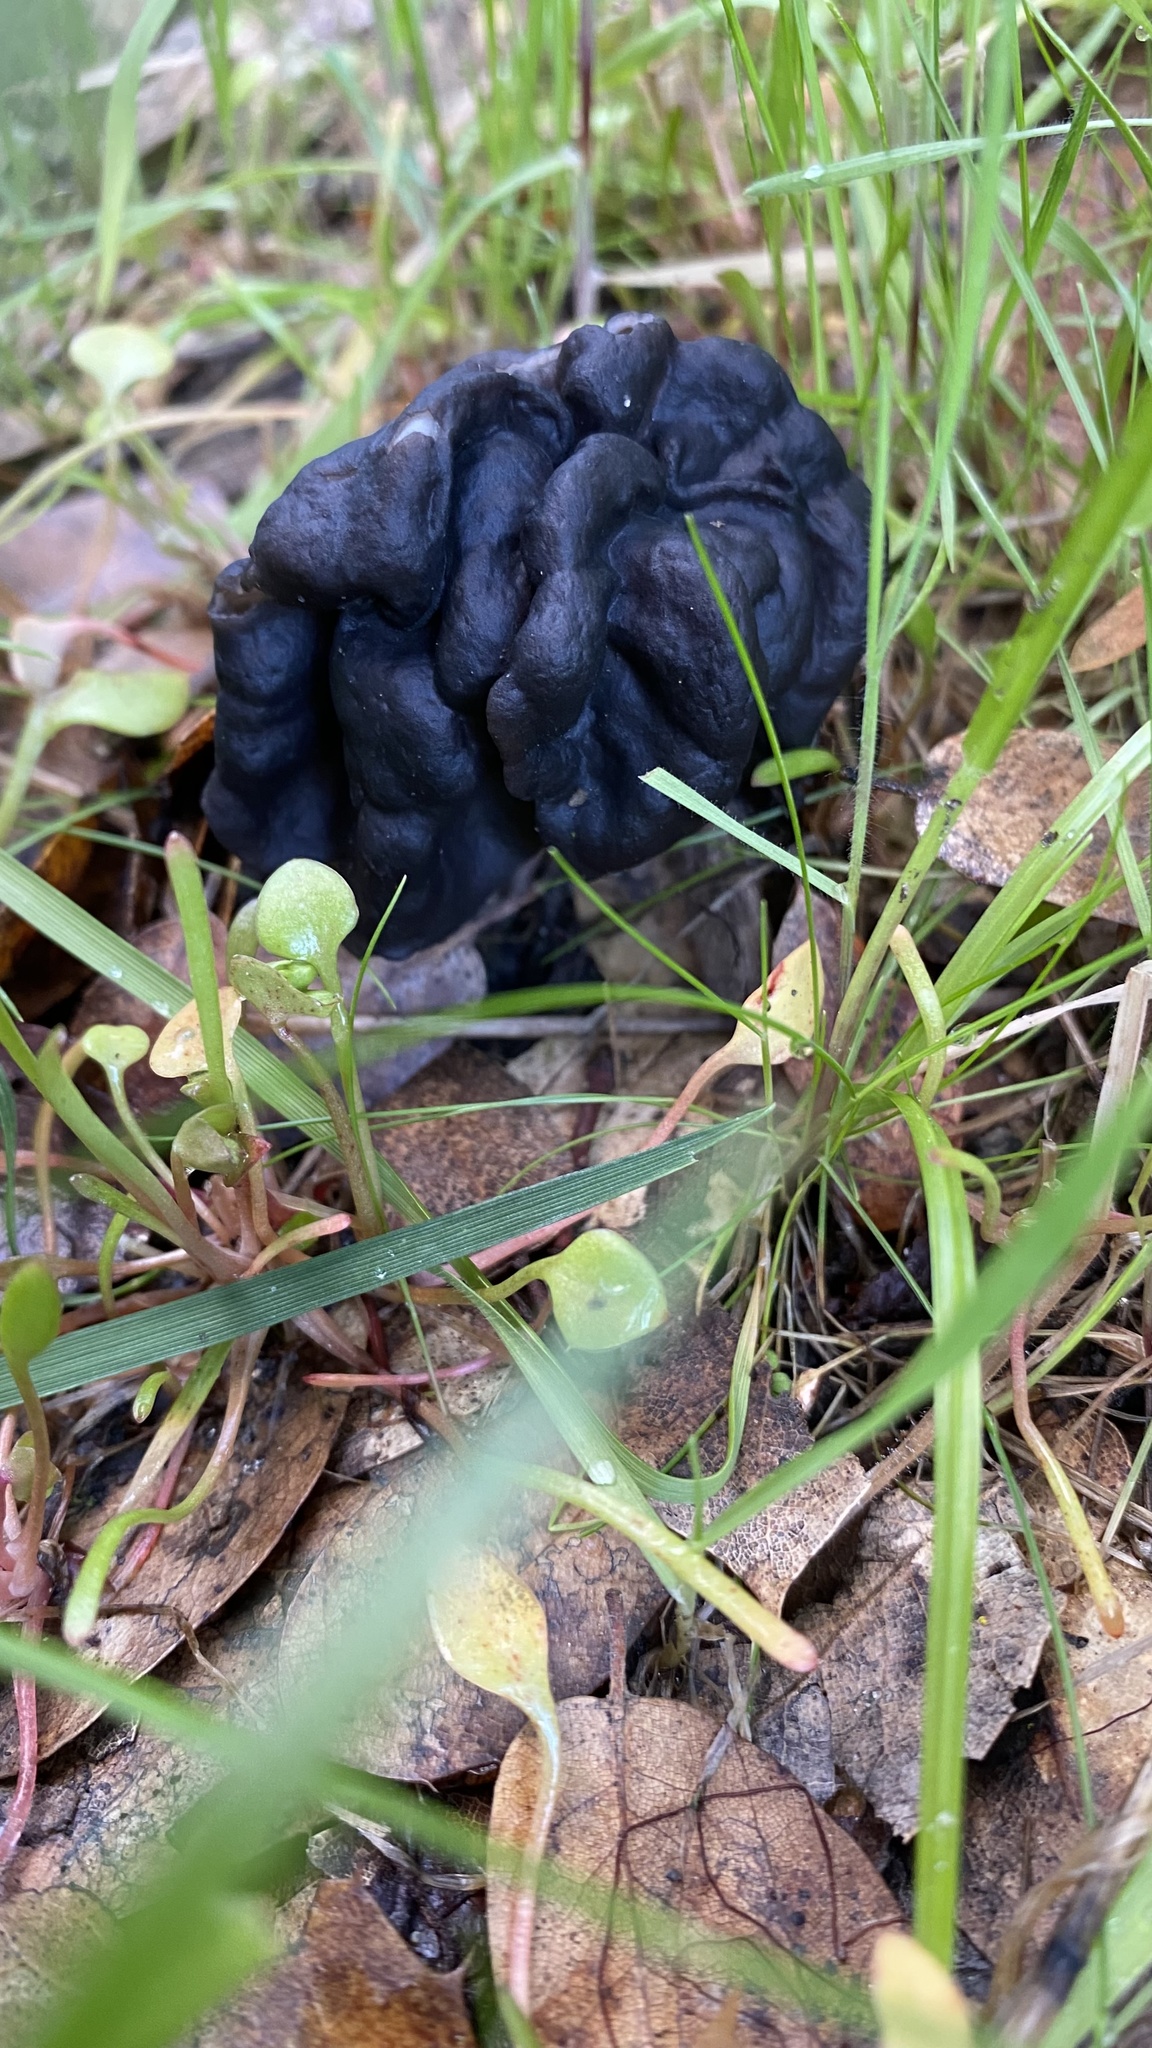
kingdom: Fungi
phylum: Ascomycota
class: Pezizomycetes
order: Pezizales
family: Helvellaceae
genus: Helvella
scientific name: Helvella dryophila
